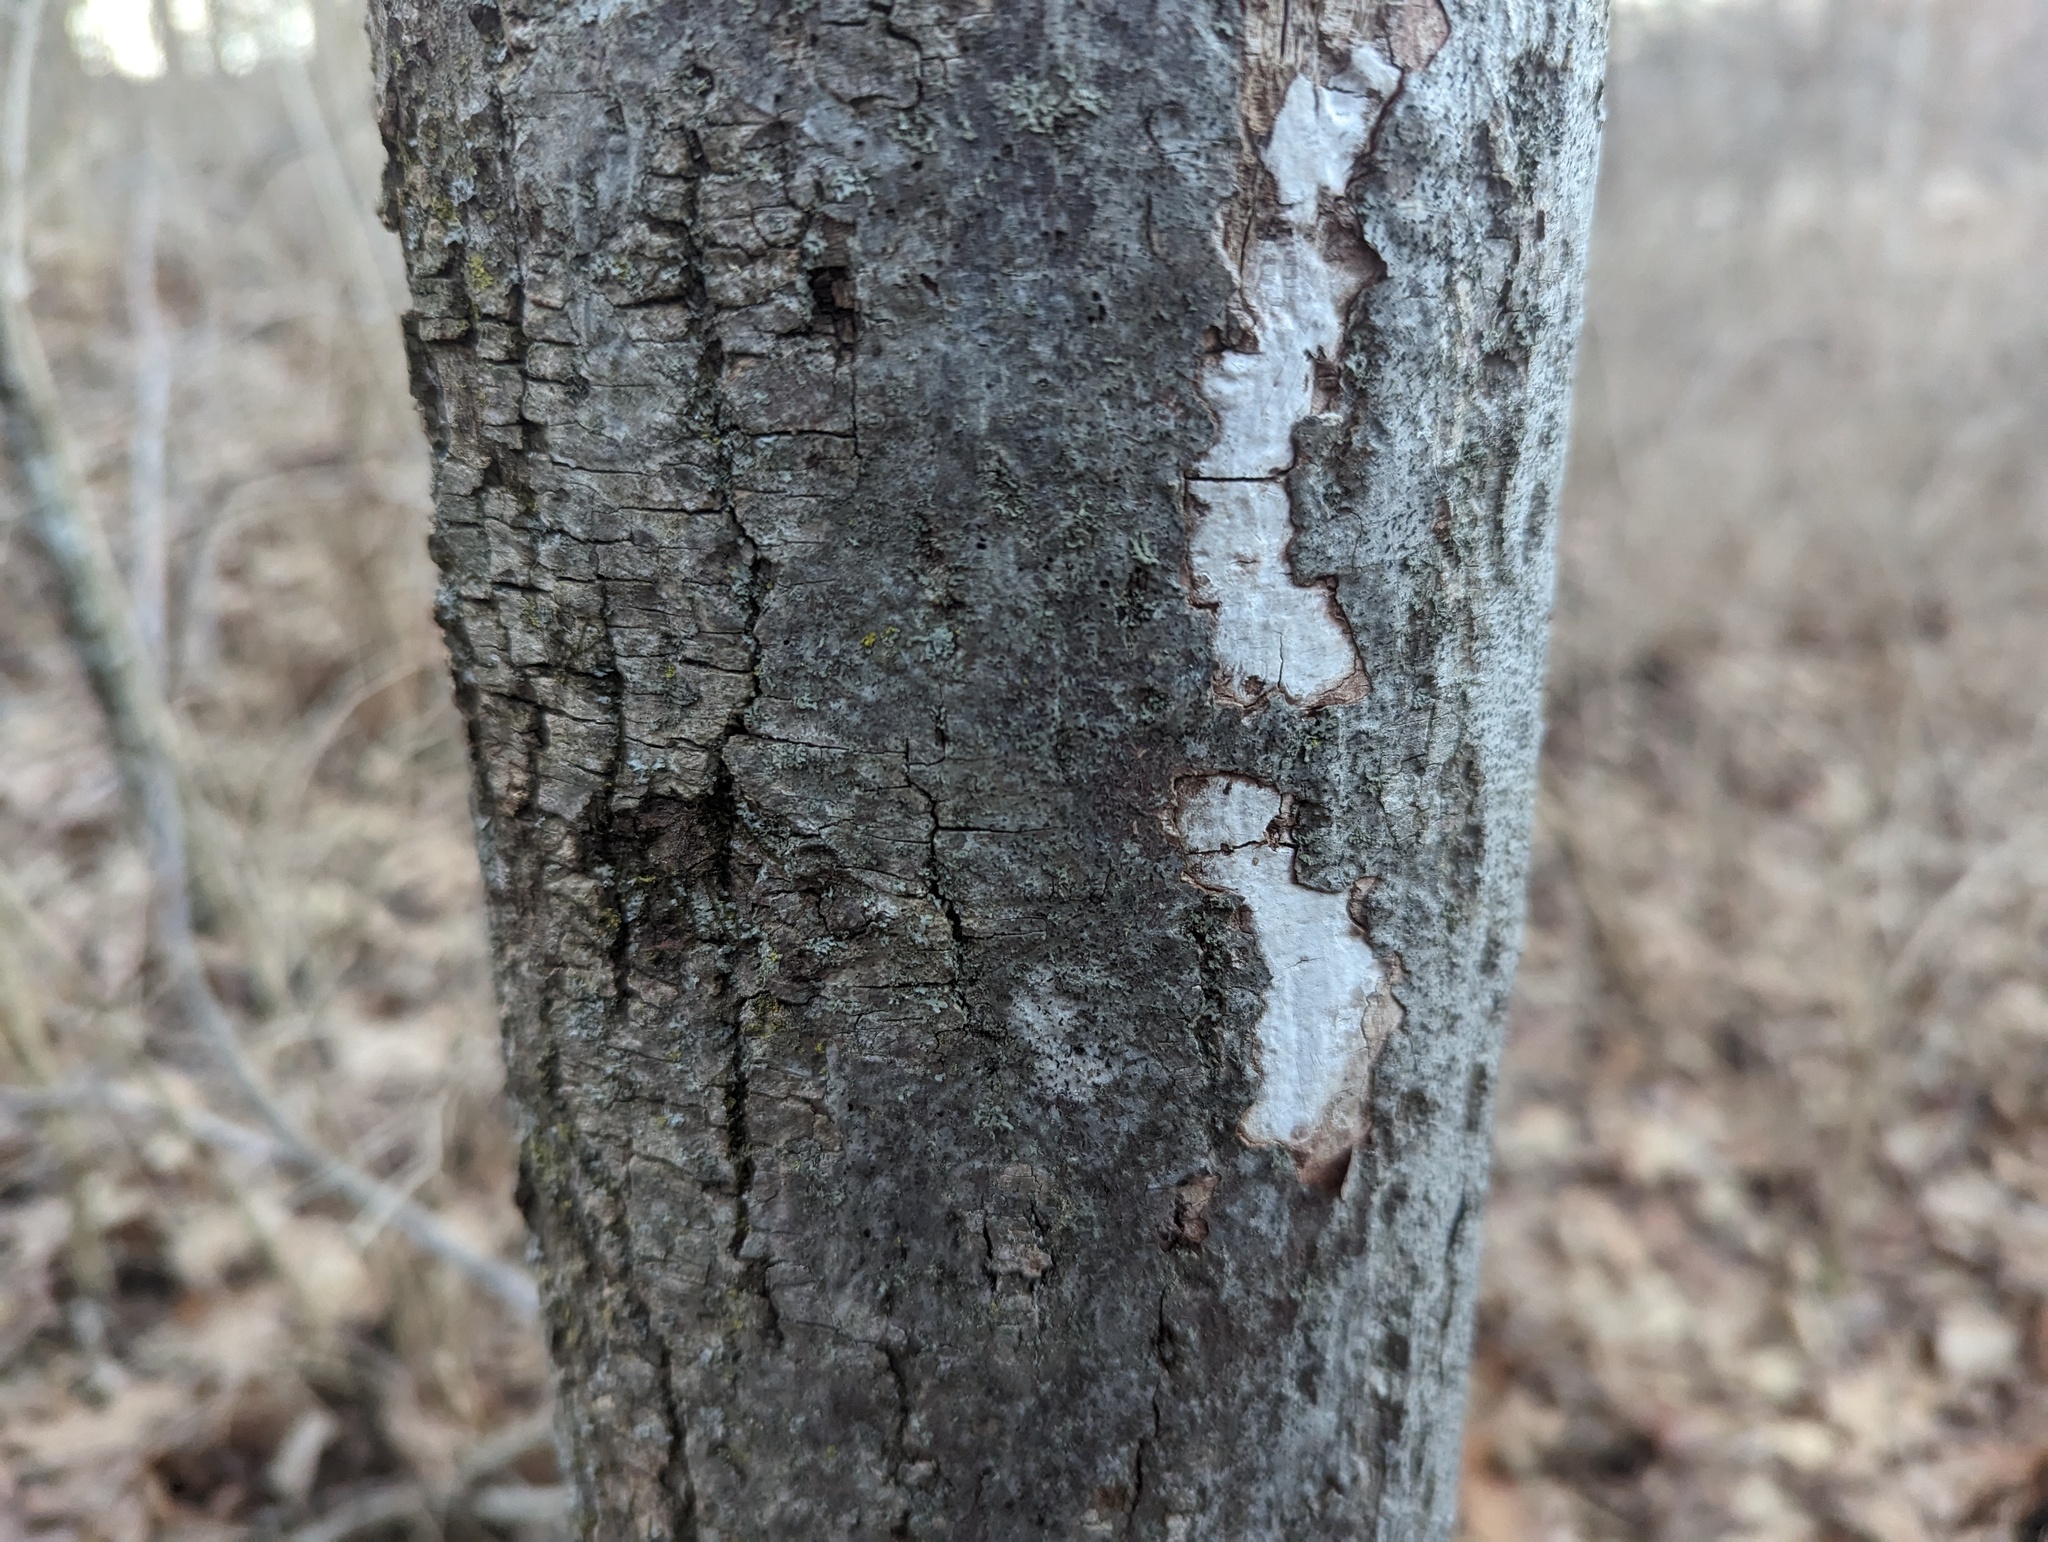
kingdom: Fungi
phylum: Ascomycota
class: Sordariomycetes
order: Xylariales
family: Graphostromataceae
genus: Biscogniauxia
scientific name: Biscogniauxia atropunctata
